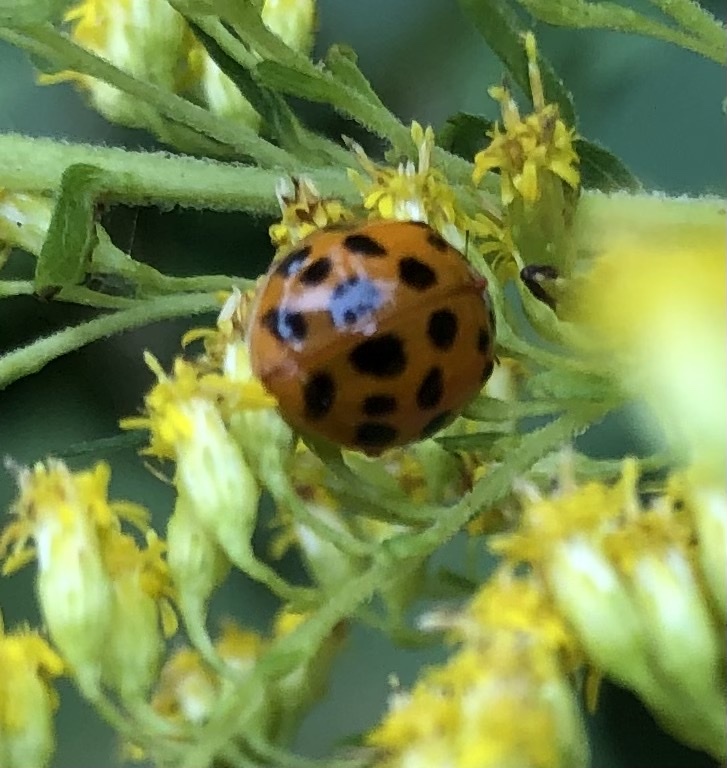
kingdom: Animalia
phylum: Arthropoda
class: Insecta
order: Coleoptera
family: Coccinellidae
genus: Harmonia
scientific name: Harmonia axyridis
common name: Harlequin ladybird
